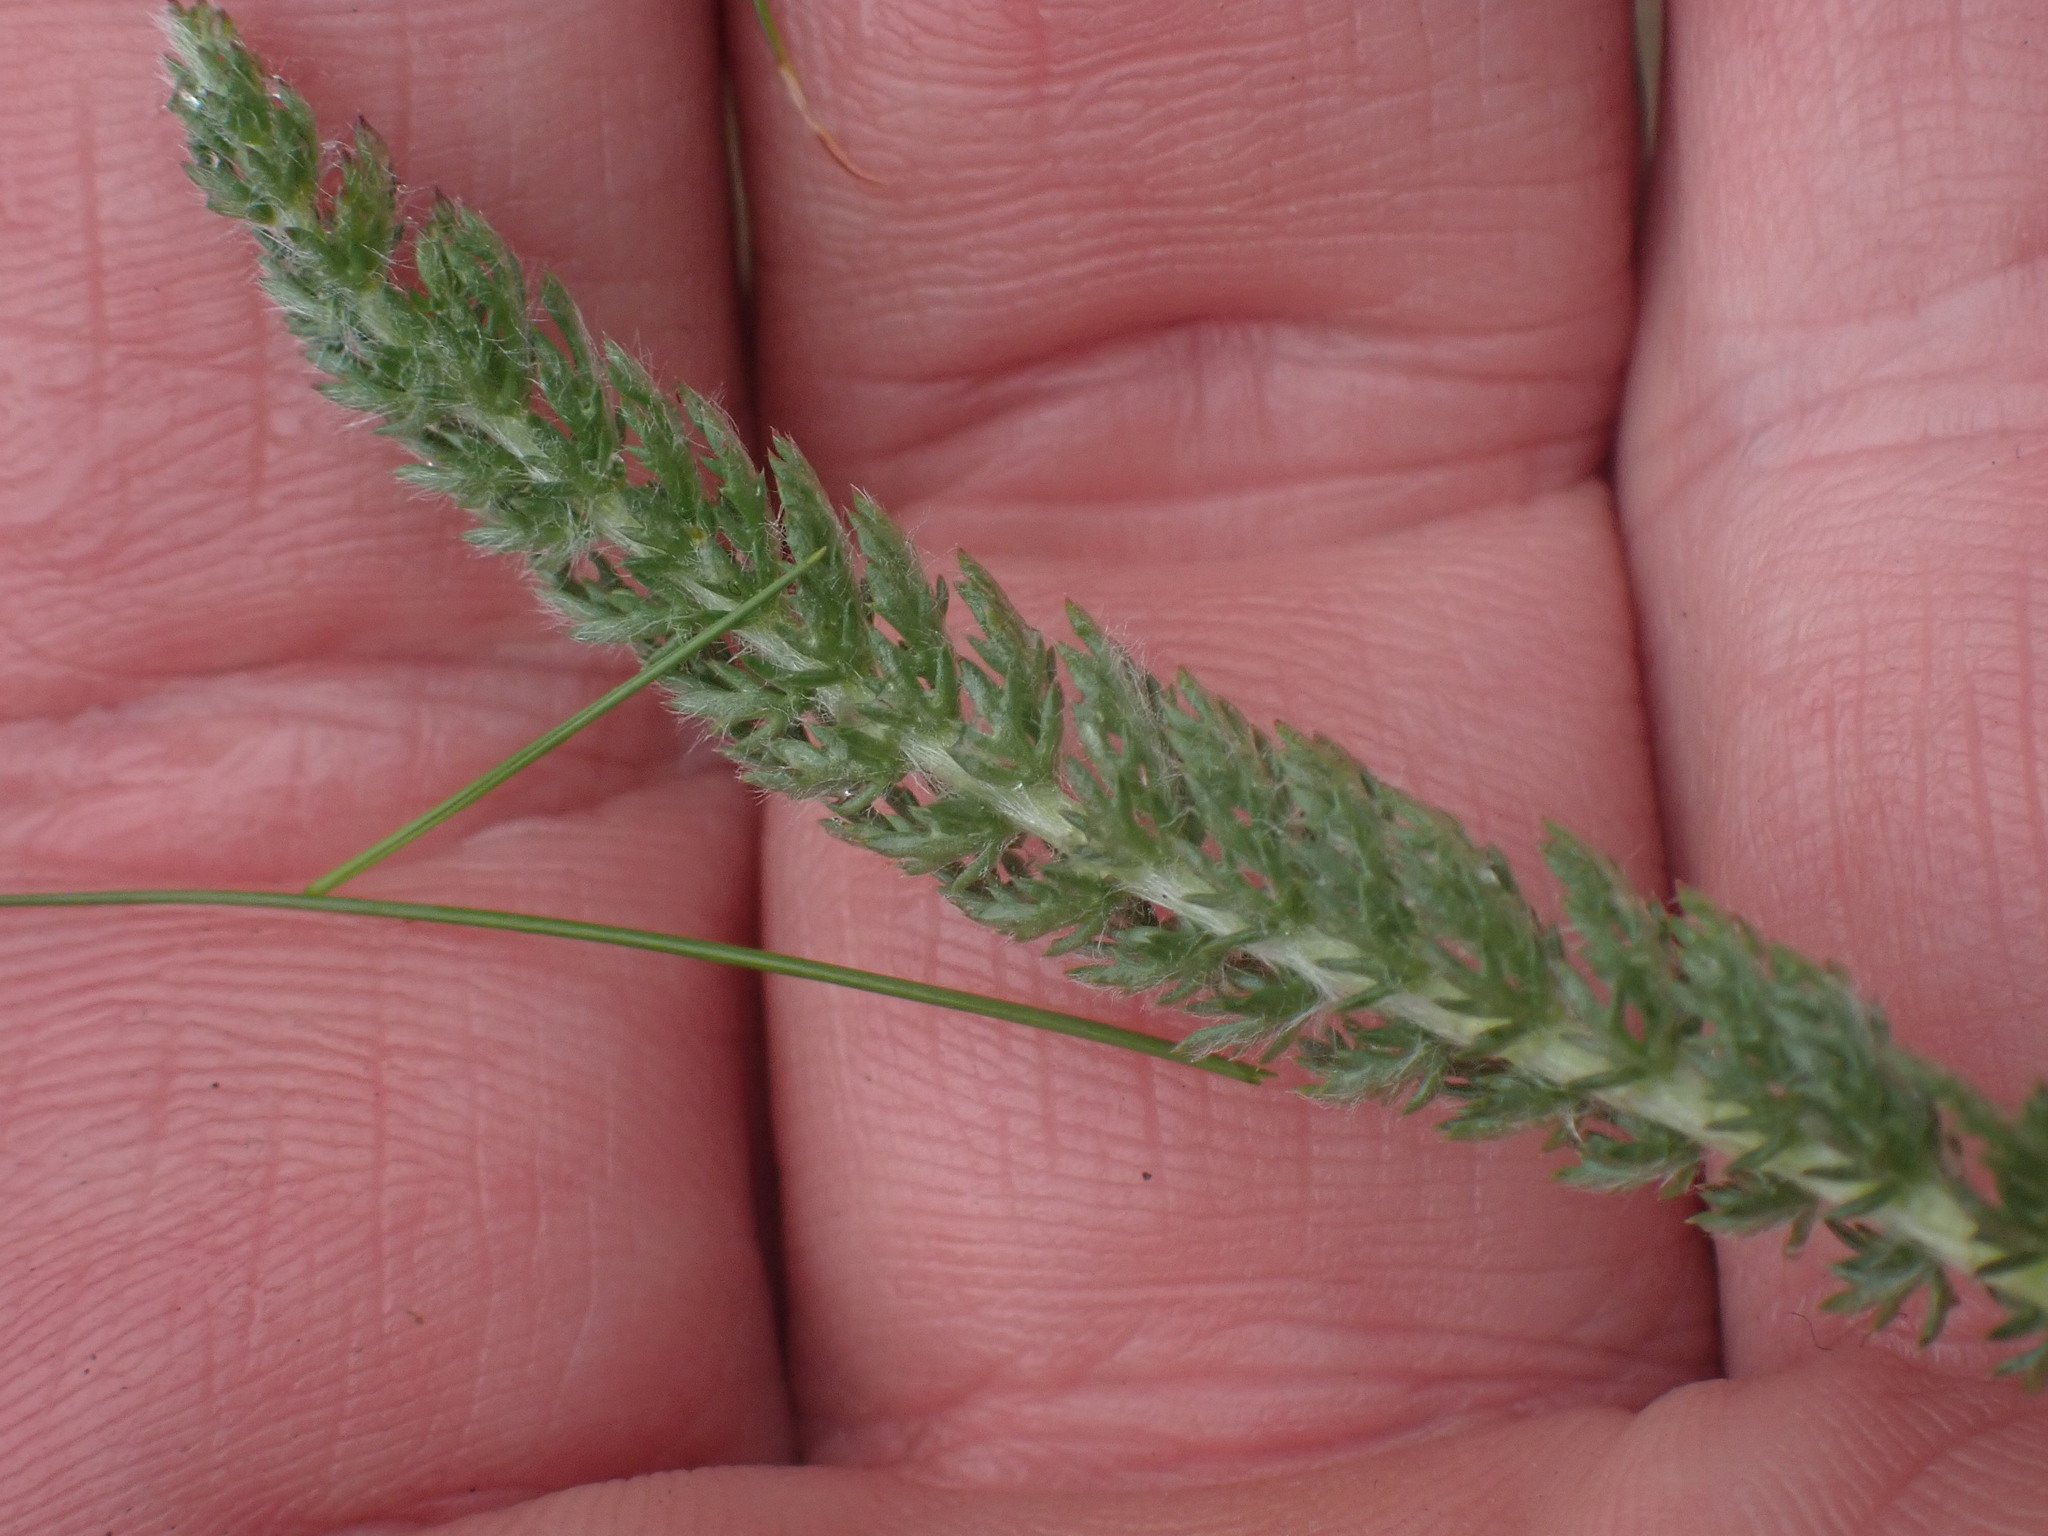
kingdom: Plantae
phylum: Tracheophyta
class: Magnoliopsida
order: Asterales
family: Asteraceae
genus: Achillea
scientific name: Achillea millefolium
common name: Yarrow
